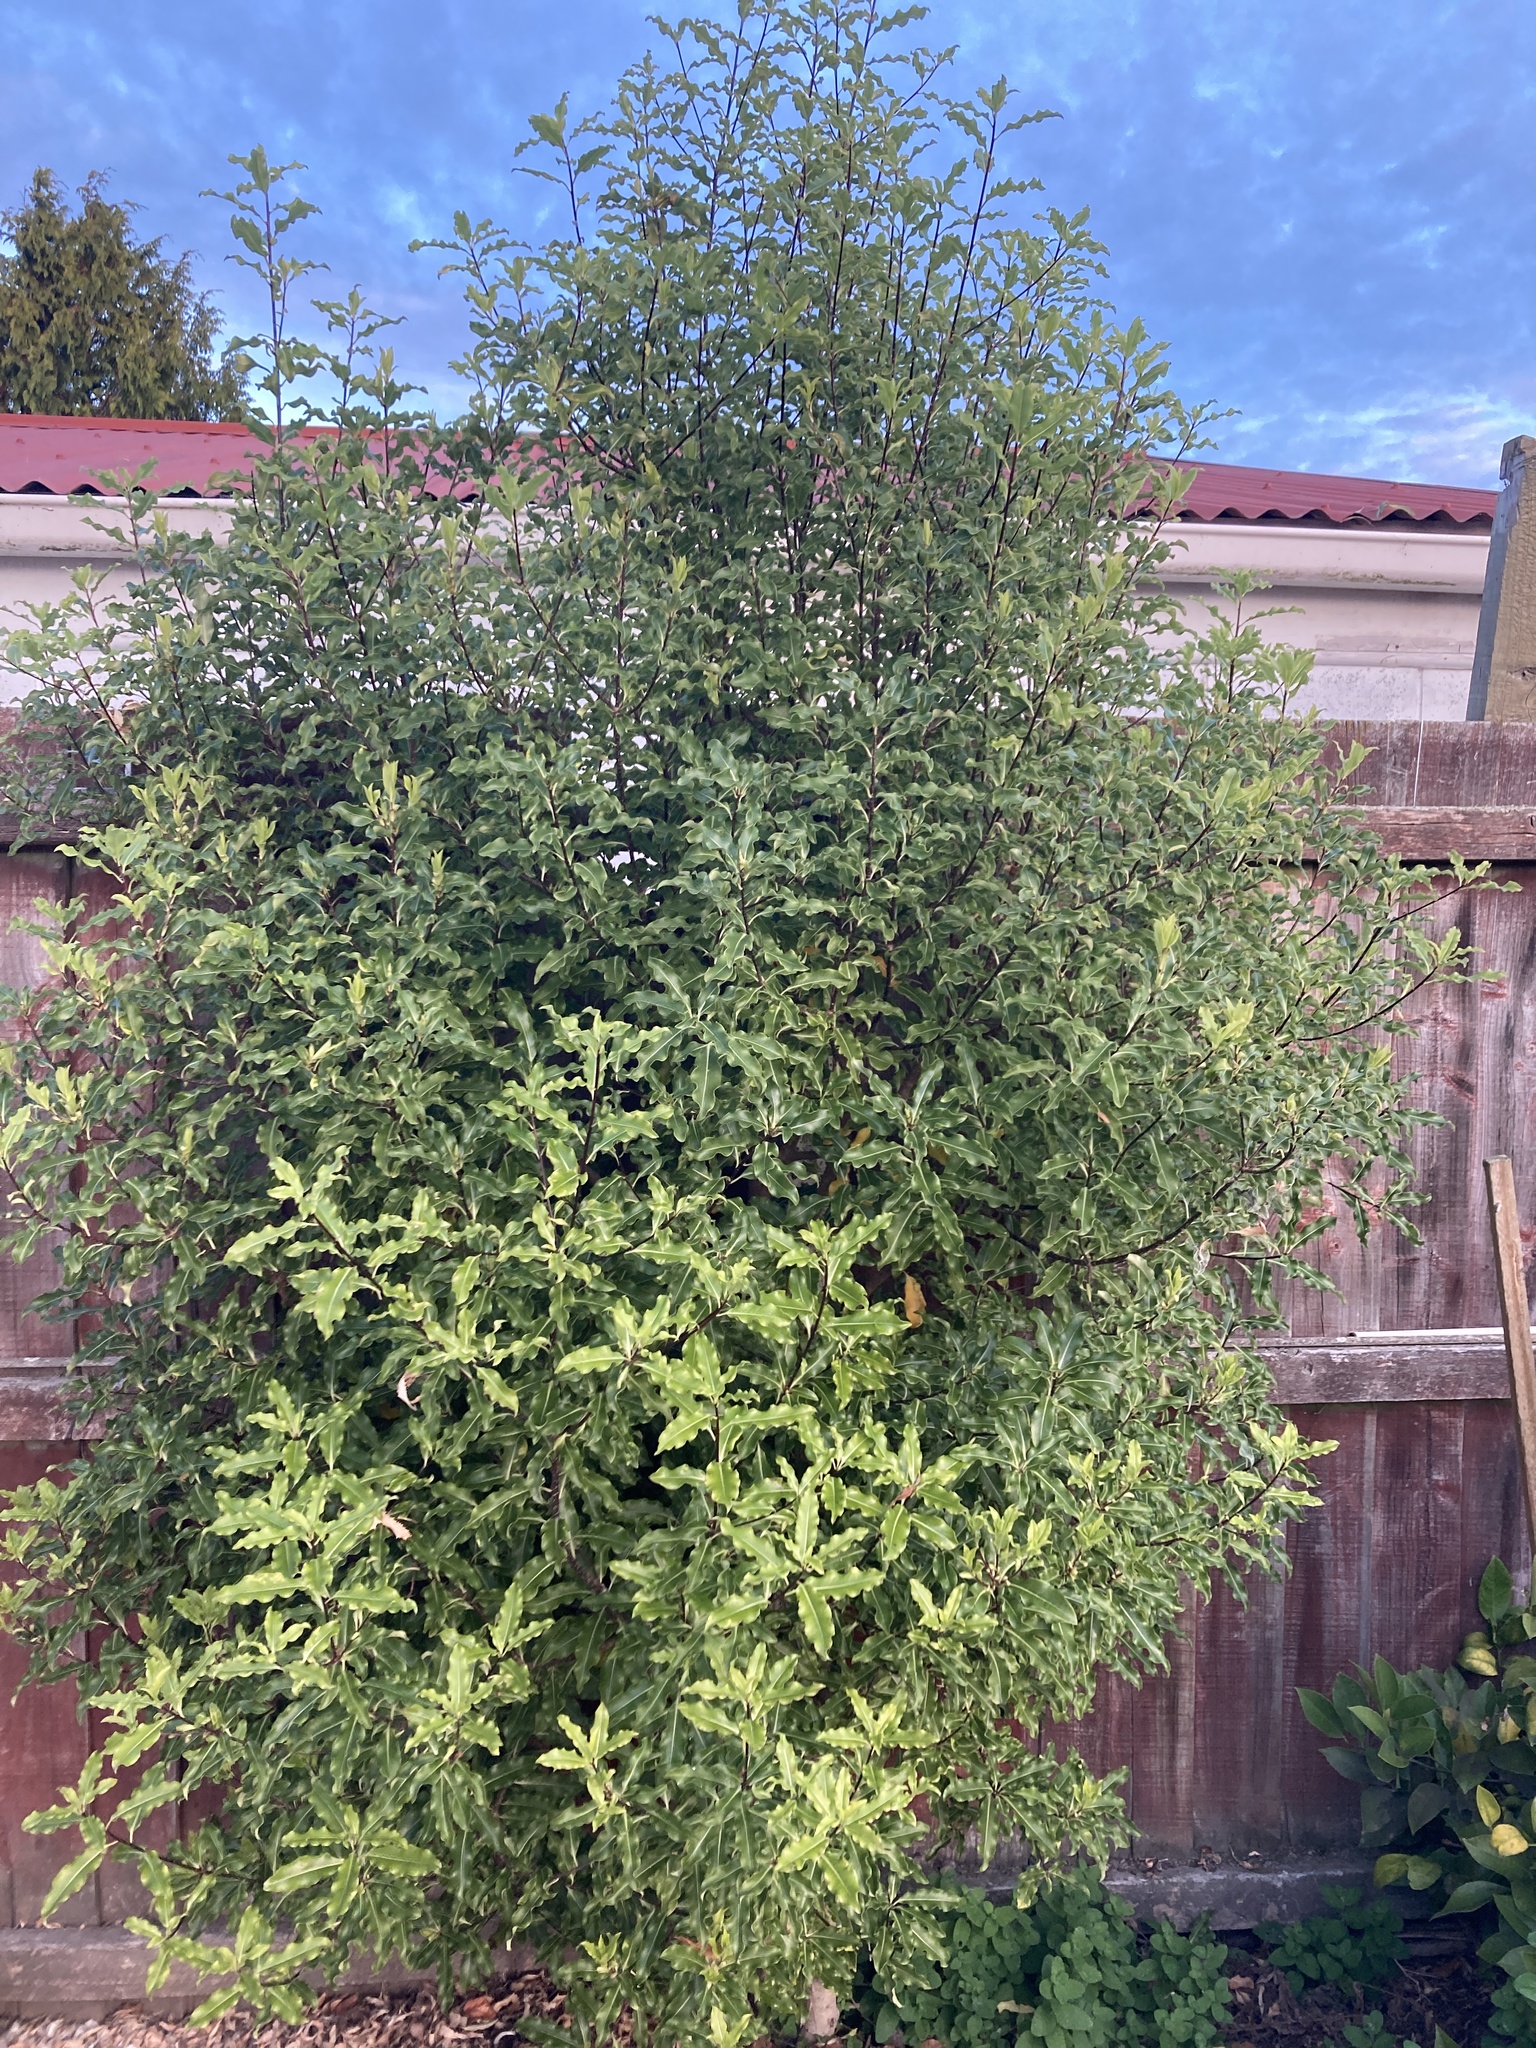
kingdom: Plantae
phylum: Tracheophyta
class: Magnoliopsida
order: Apiales
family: Pittosporaceae
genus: Pittosporum
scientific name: Pittosporum eugenioides
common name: Lemonwood
